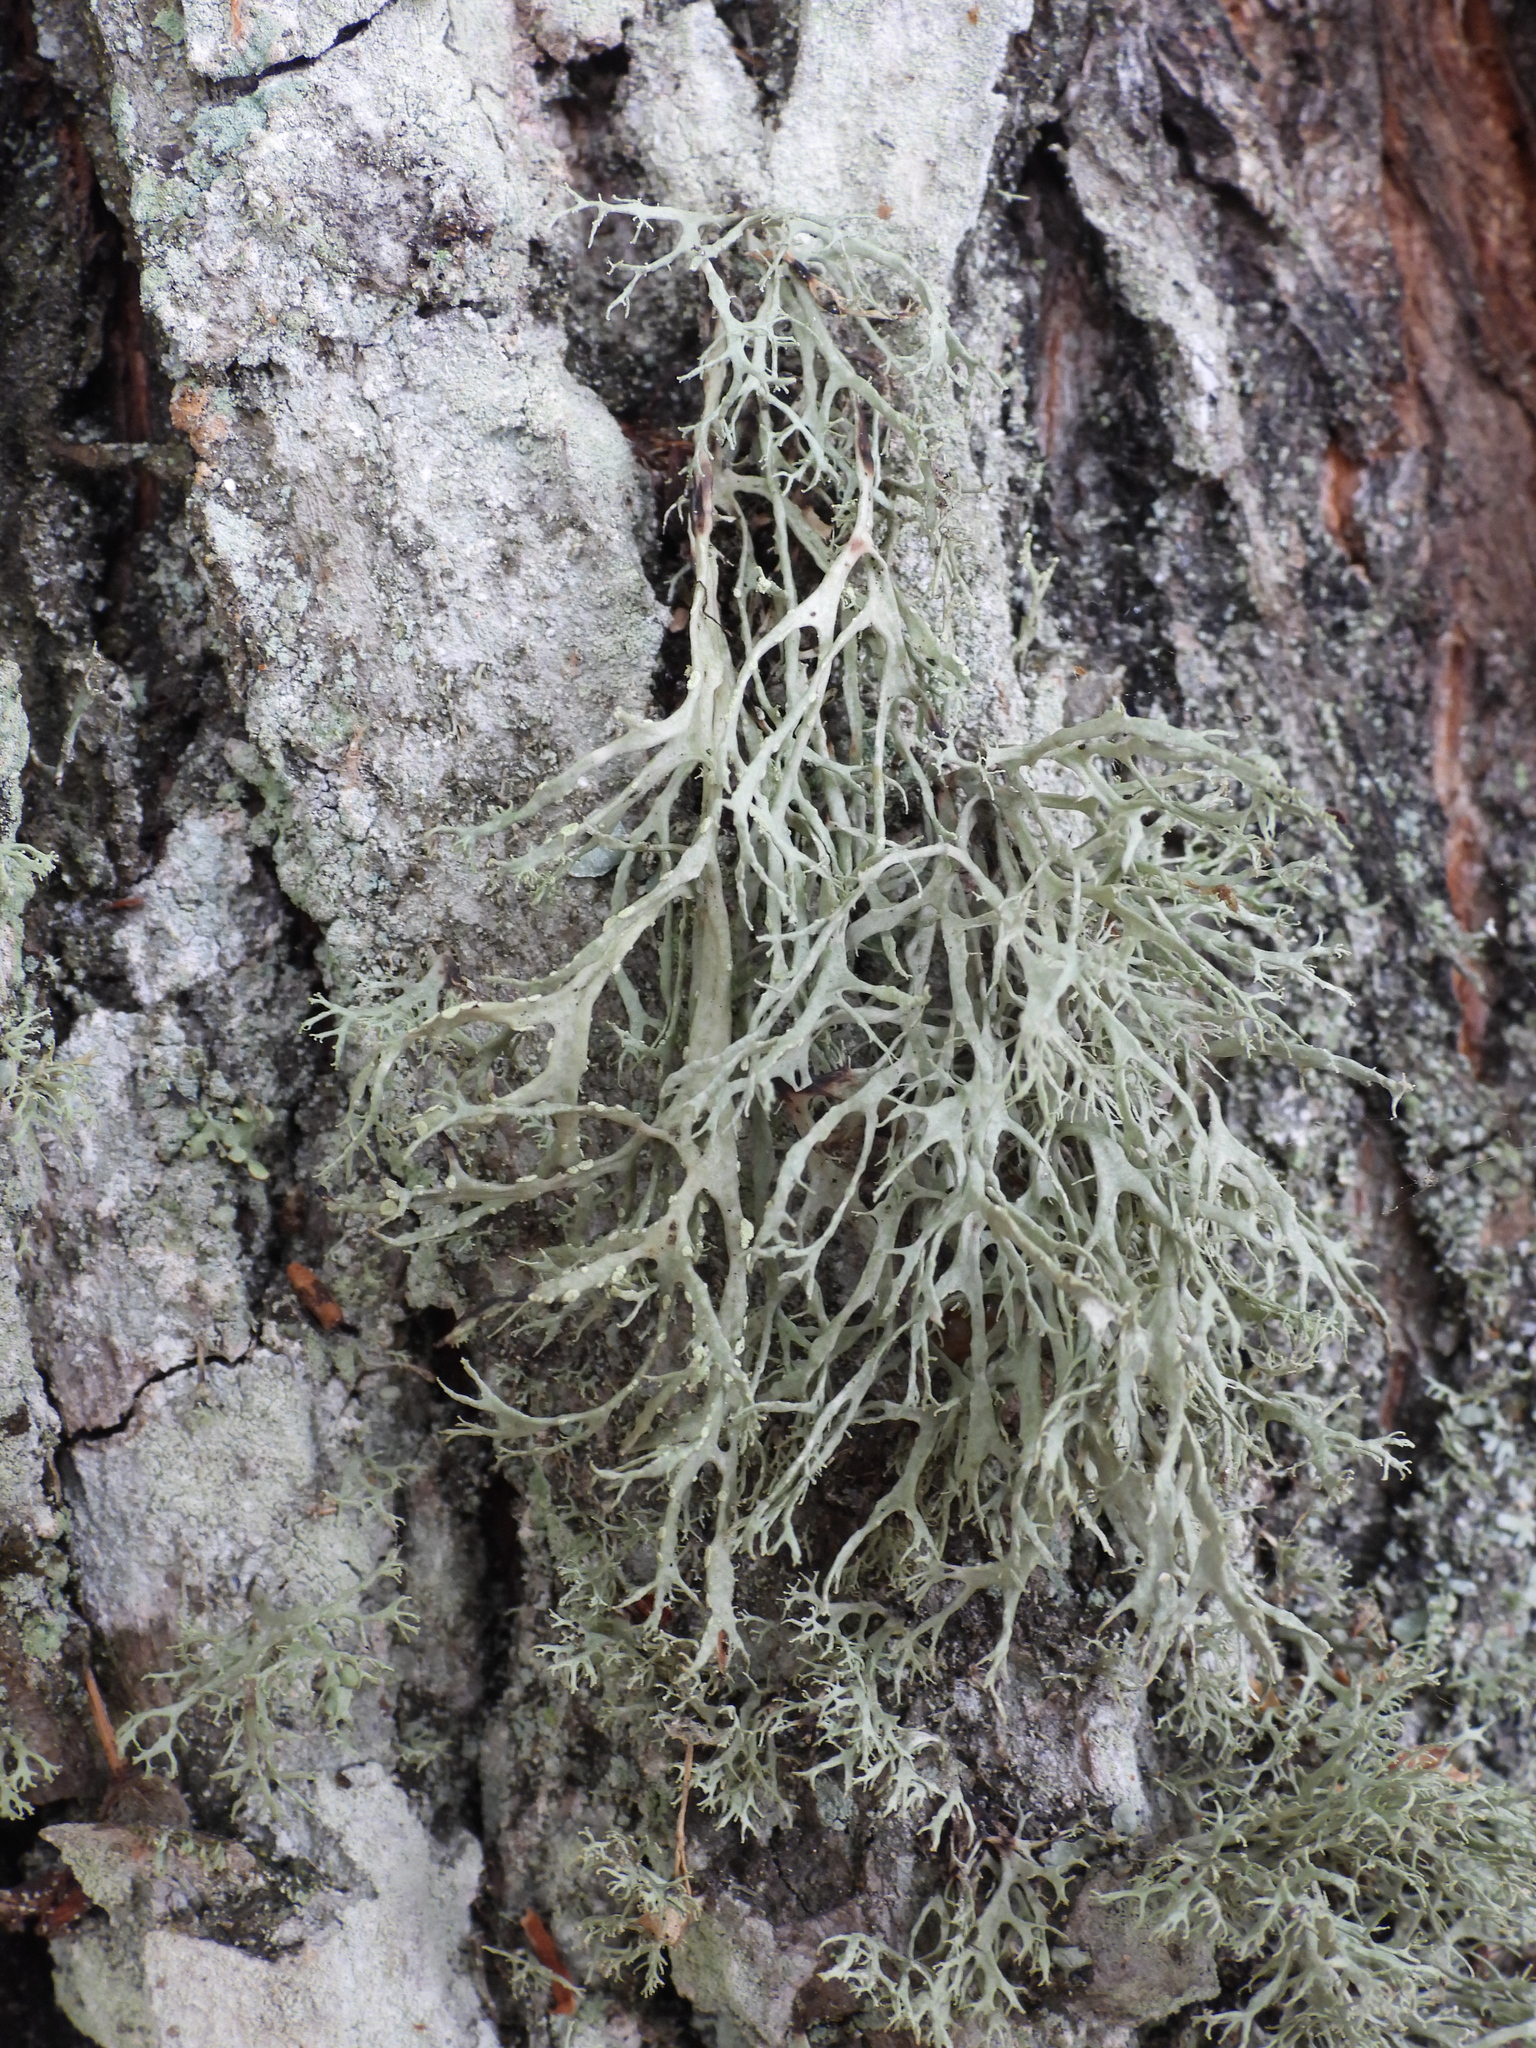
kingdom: Fungi
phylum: Ascomycota
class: Lecanoromycetes
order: Lecanorales
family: Ramalinaceae
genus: Ramalina
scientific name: Ramalina farinacea
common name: Farinose cartilage lichen
